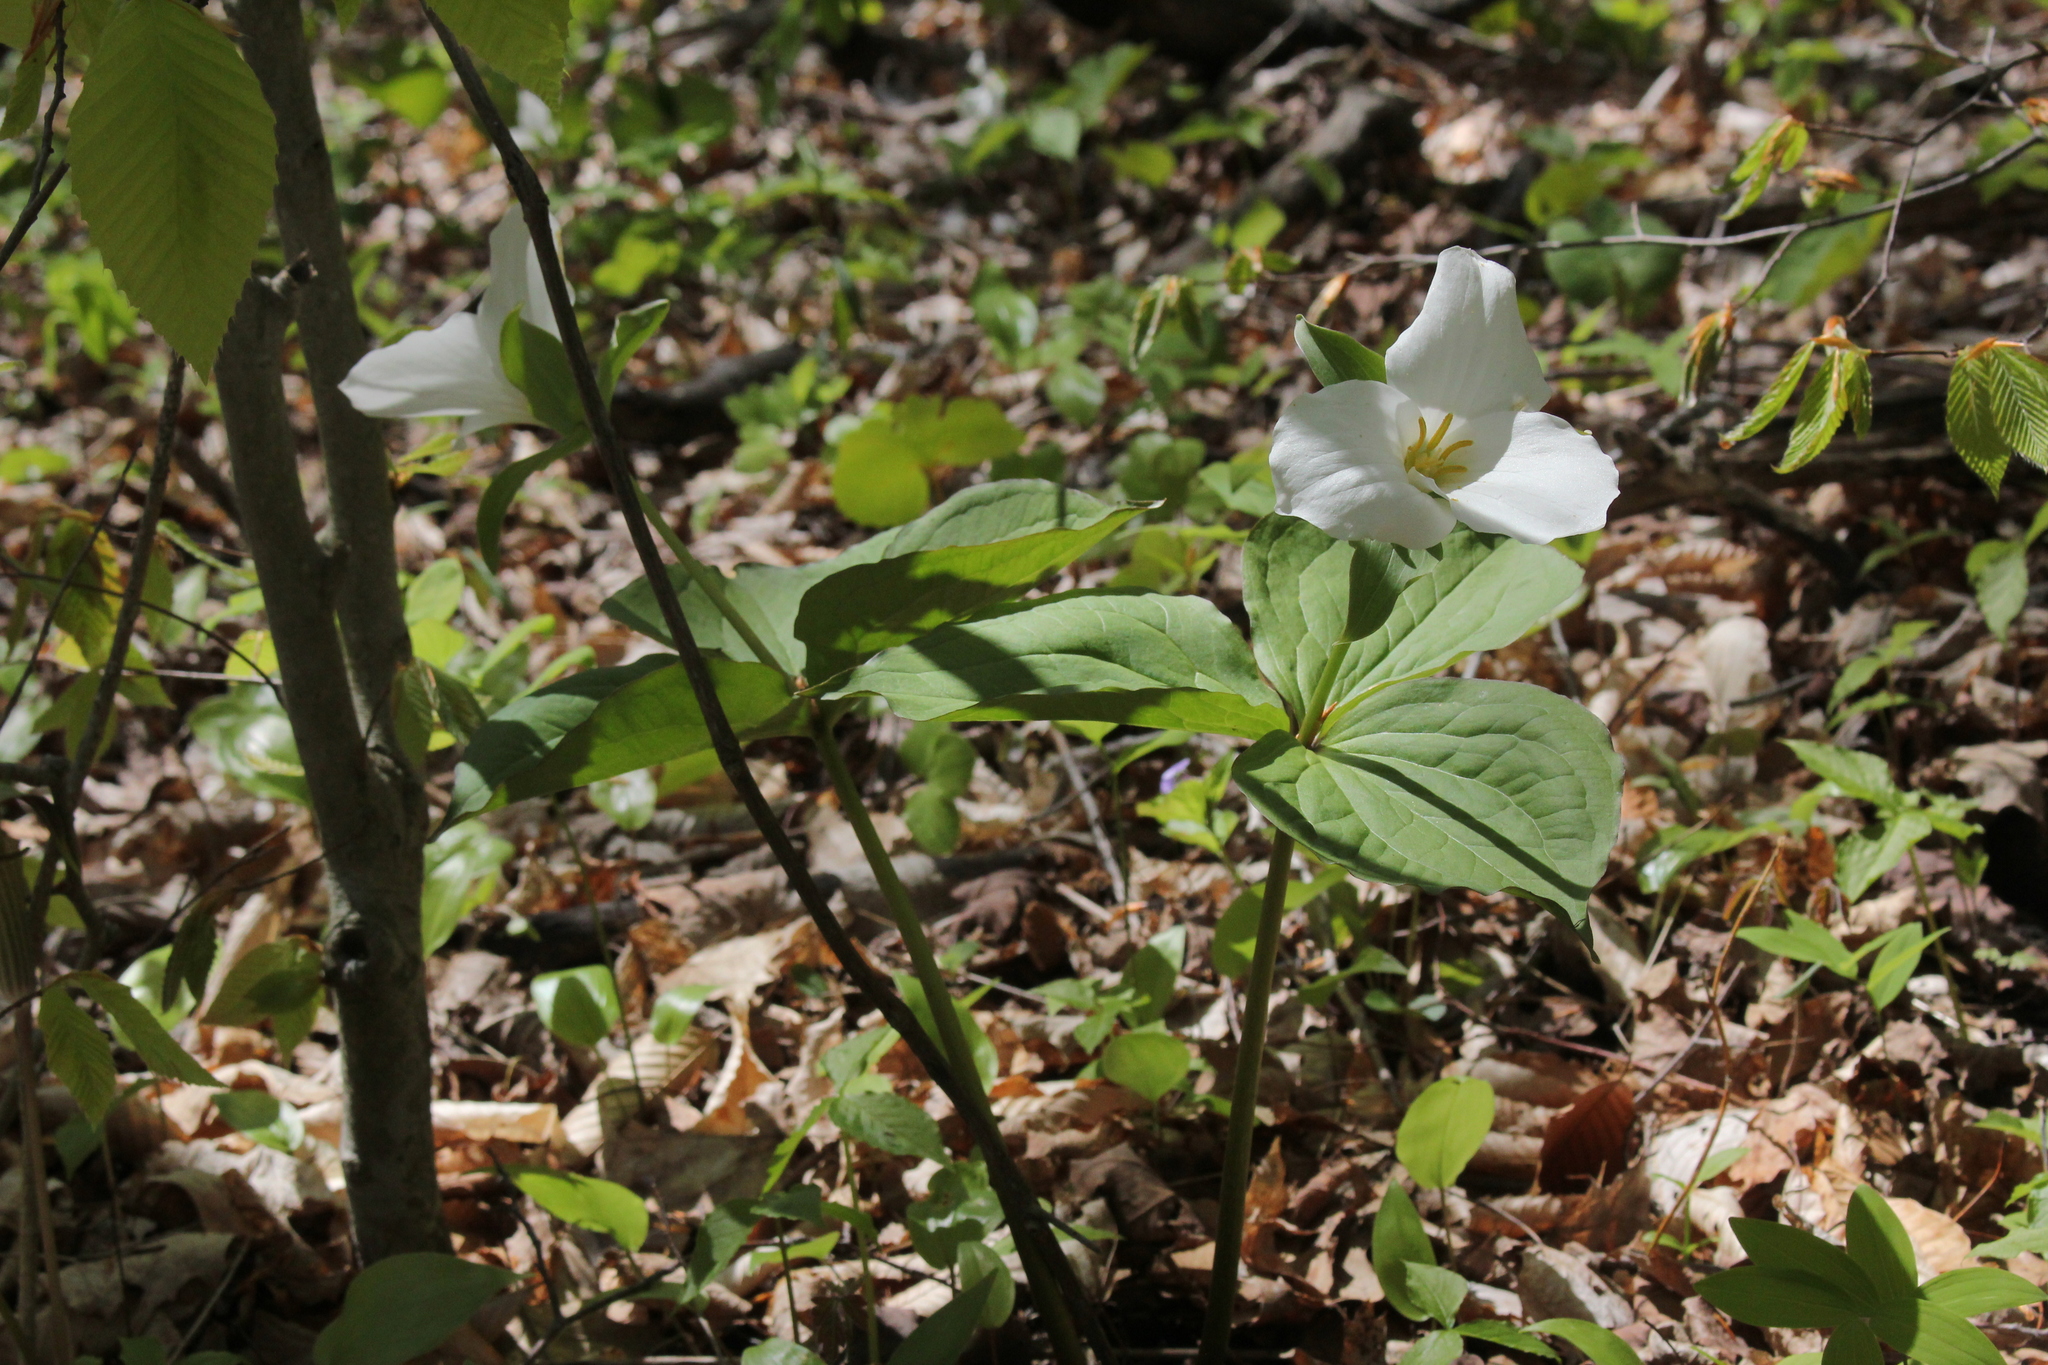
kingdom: Plantae
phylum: Tracheophyta
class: Liliopsida
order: Liliales
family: Melanthiaceae
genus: Trillium
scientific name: Trillium grandiflorum
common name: Great white trillium
